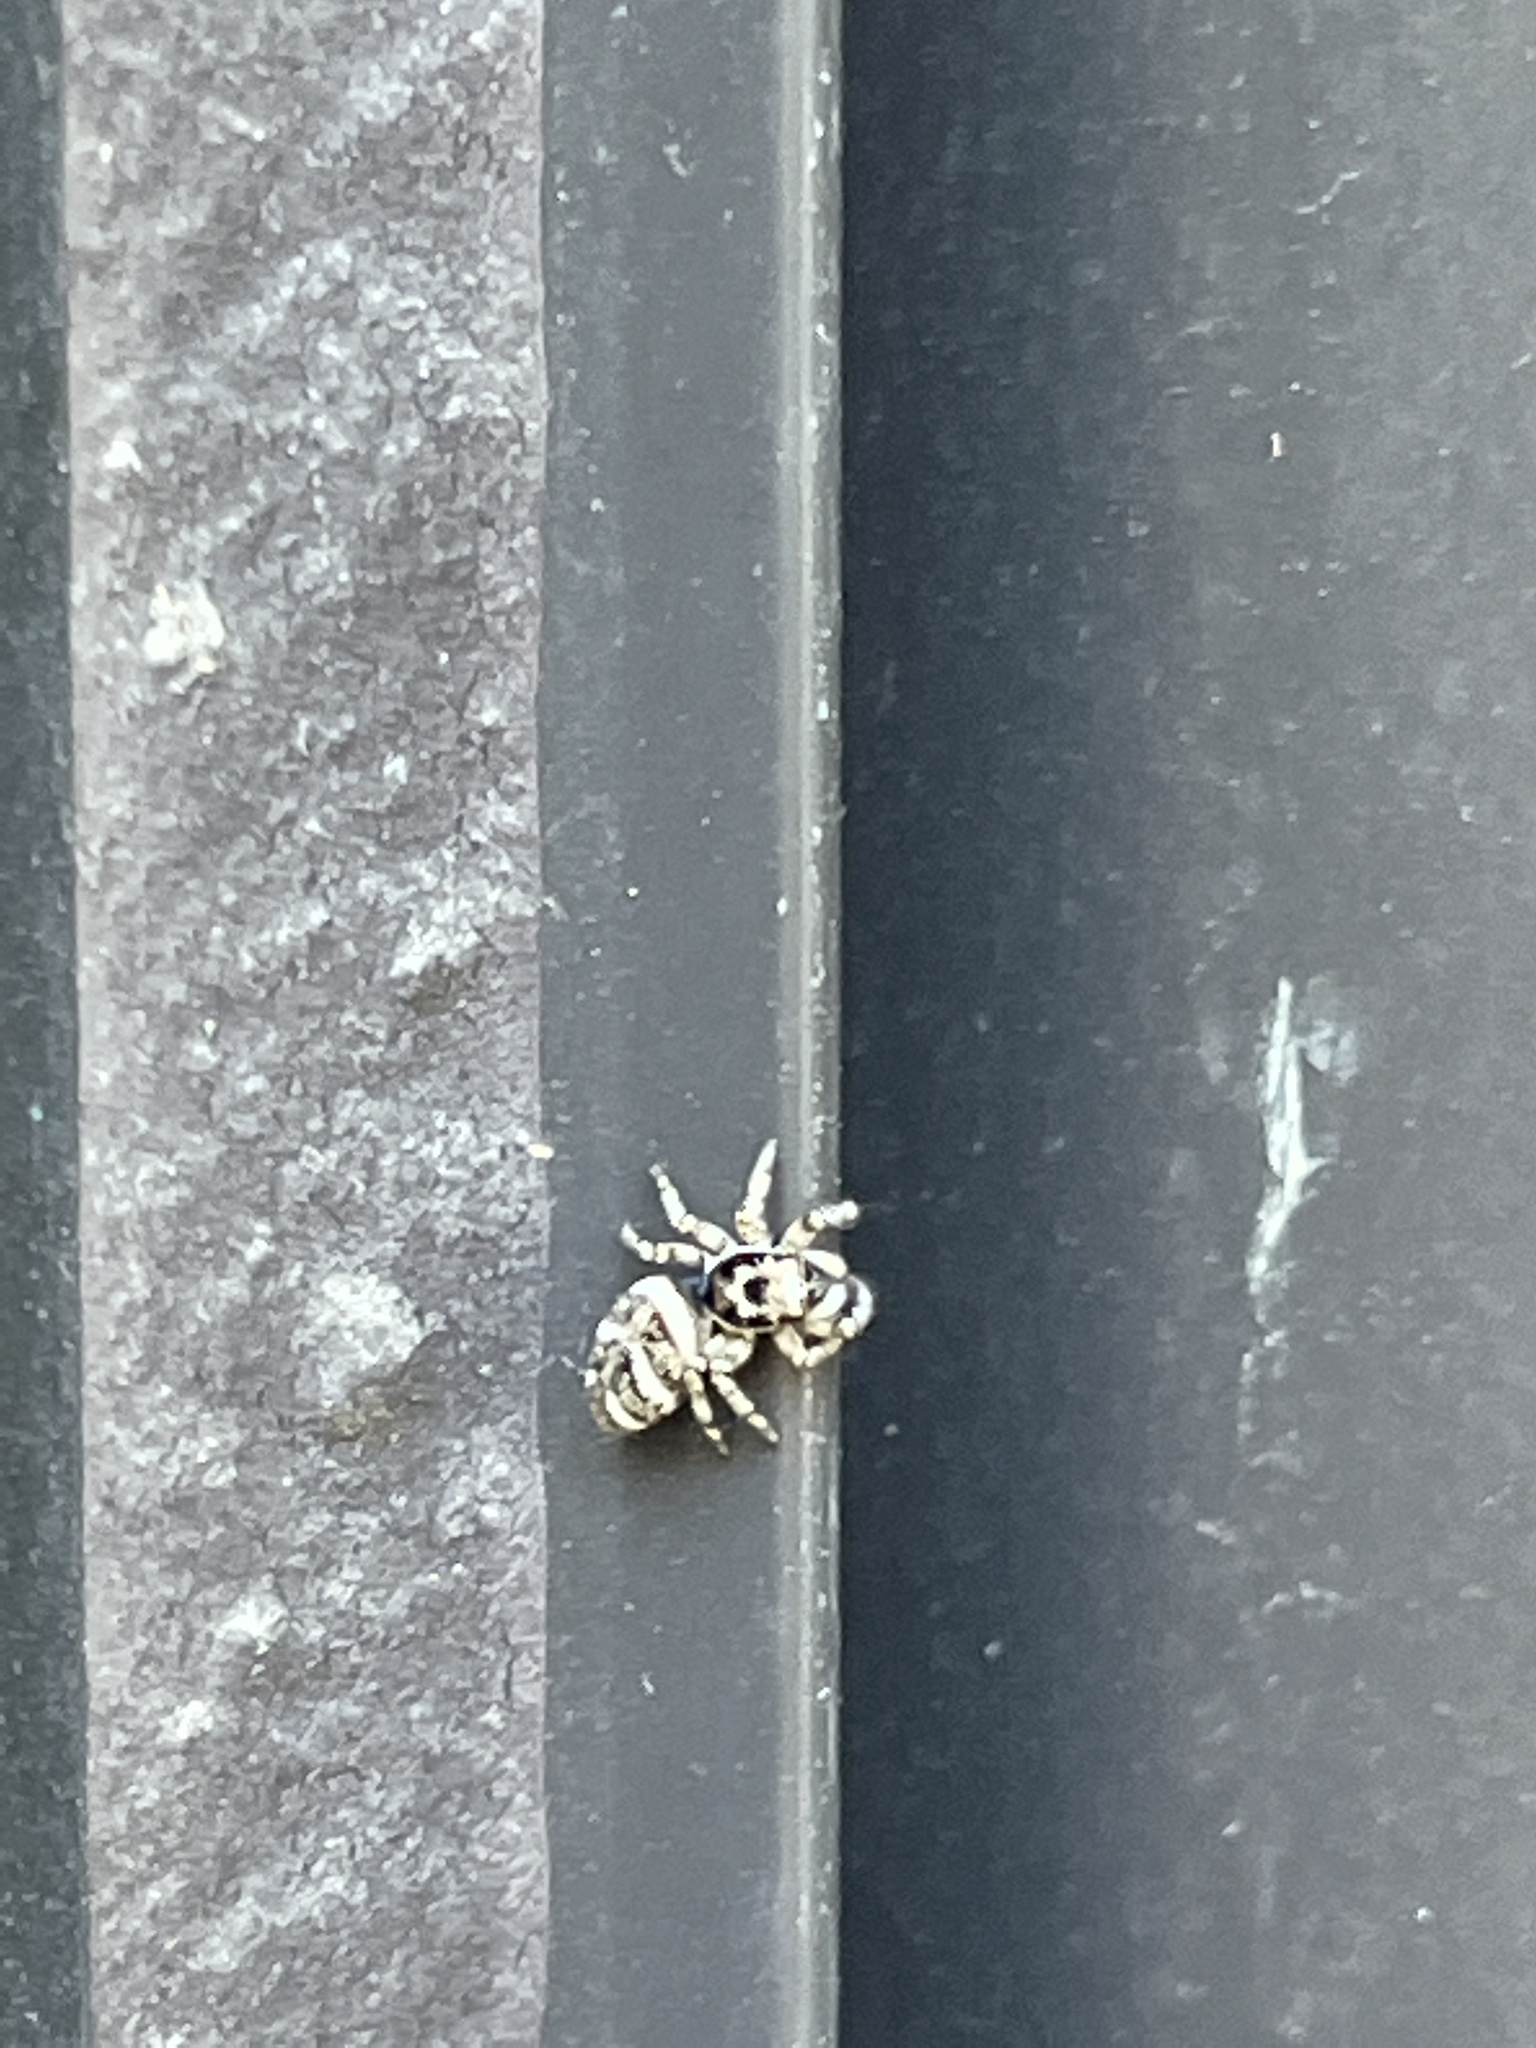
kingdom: Animalia
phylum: Arthropoda
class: Arachnida
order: Araneae
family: Salticidae
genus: Salticus
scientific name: Salticus scenicus
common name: Zebra jumper
